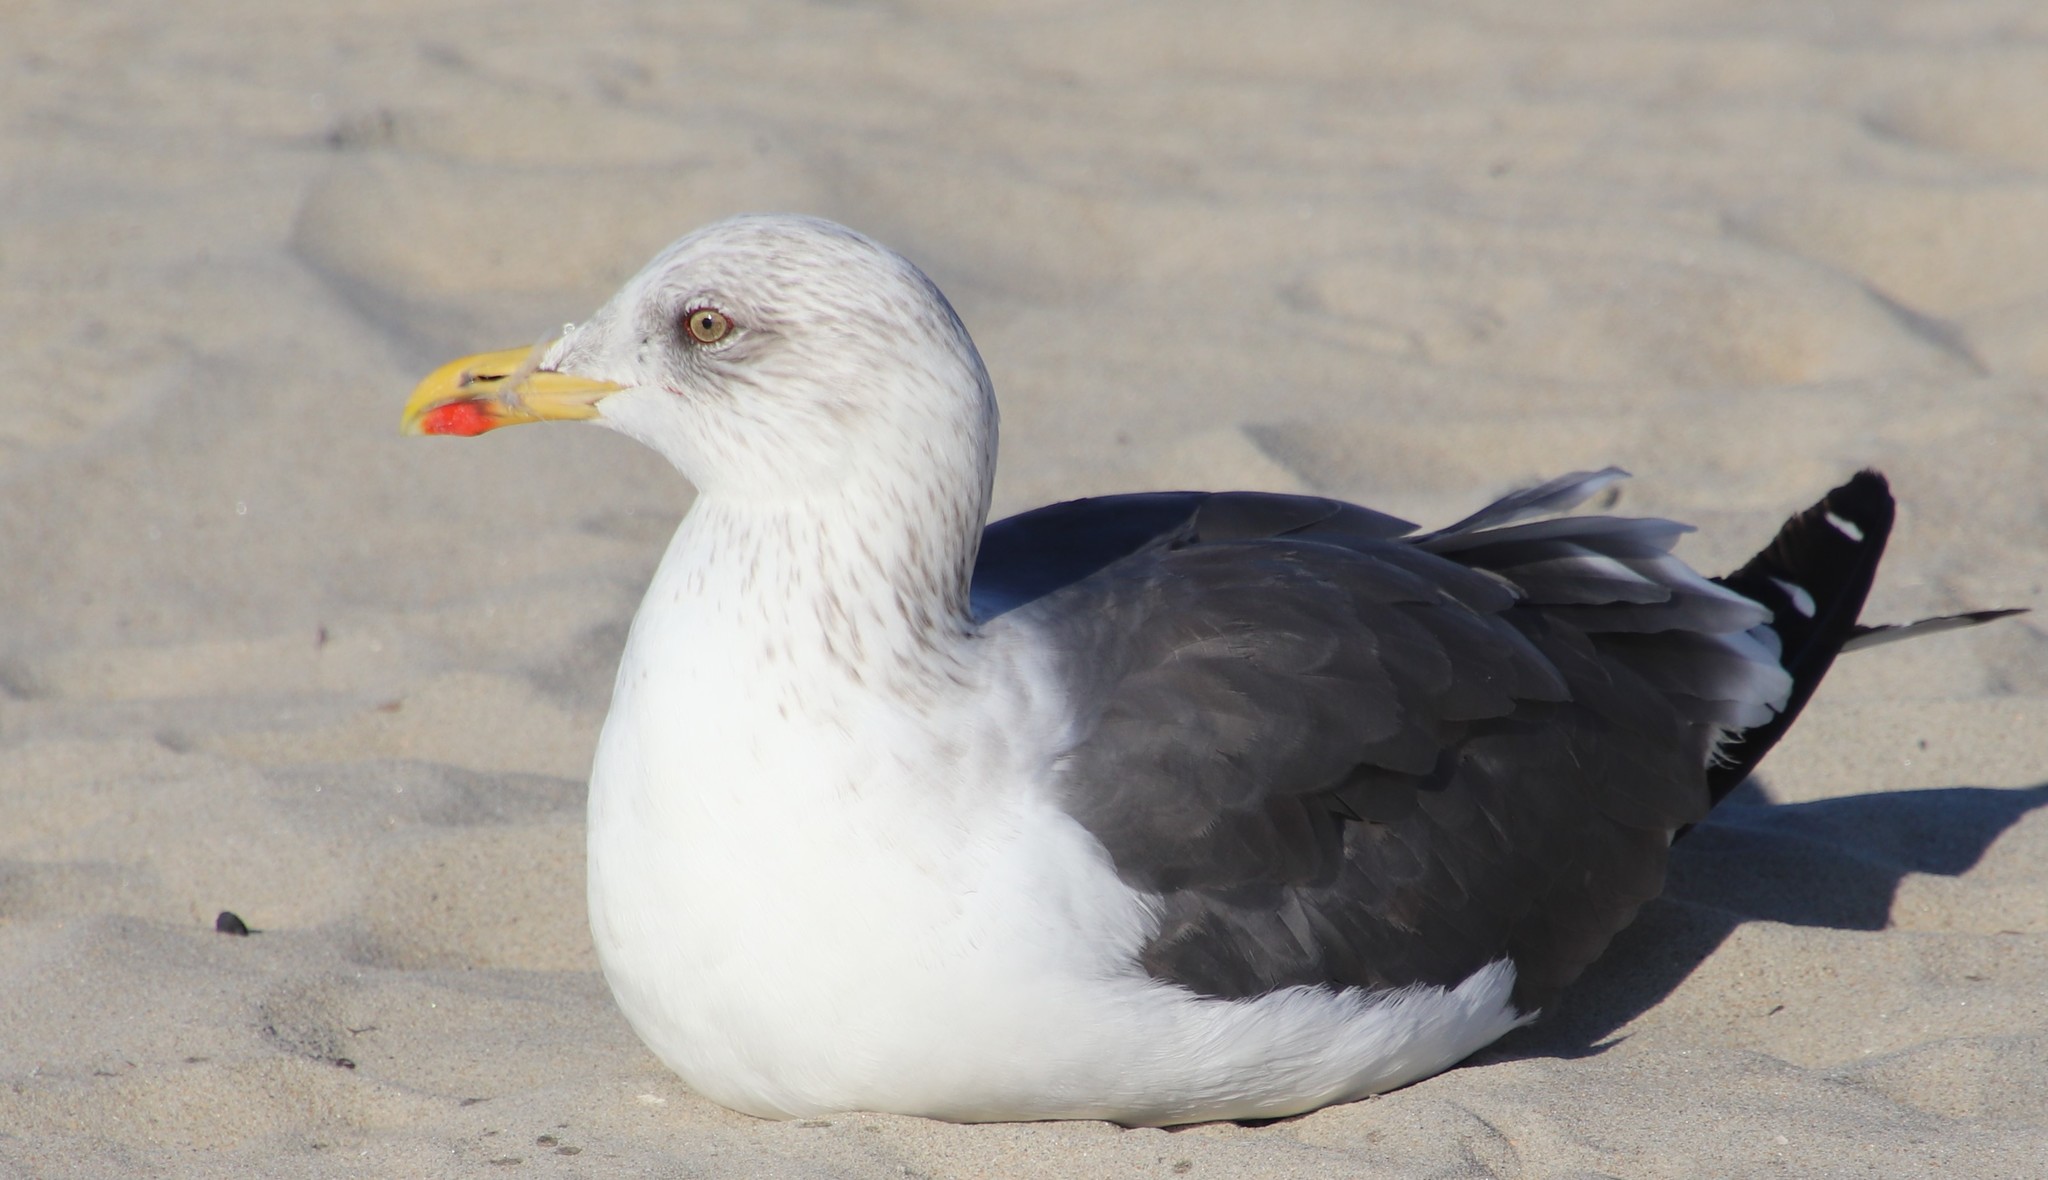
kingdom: Animalia
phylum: Chordata
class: Aves
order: Charadriiformes
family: Laridae
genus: Larus
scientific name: Larus fuscus
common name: Lesser black-backed gull
